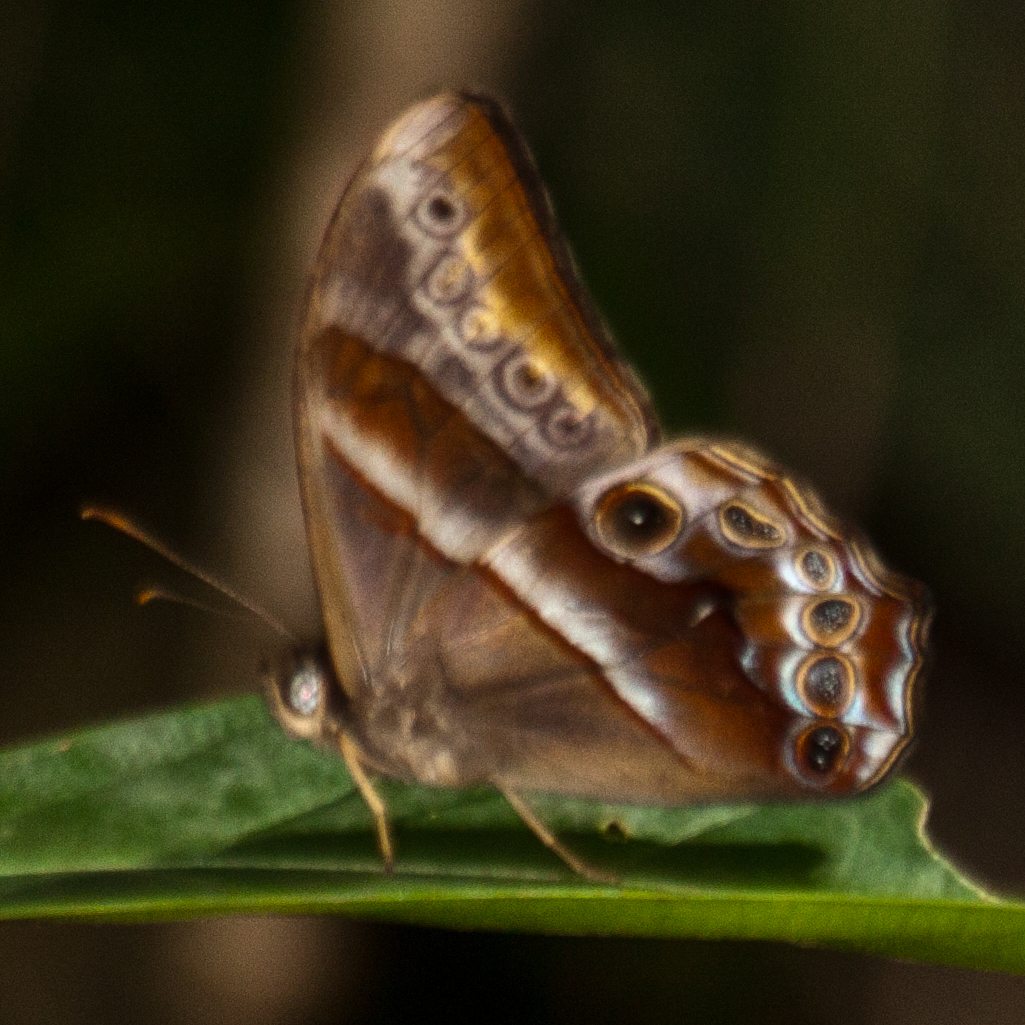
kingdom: Animalia
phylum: Arthropoda
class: Insecta
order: Lepidoptera
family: Nymphalidae
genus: Lethe
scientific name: Lethe mekara
